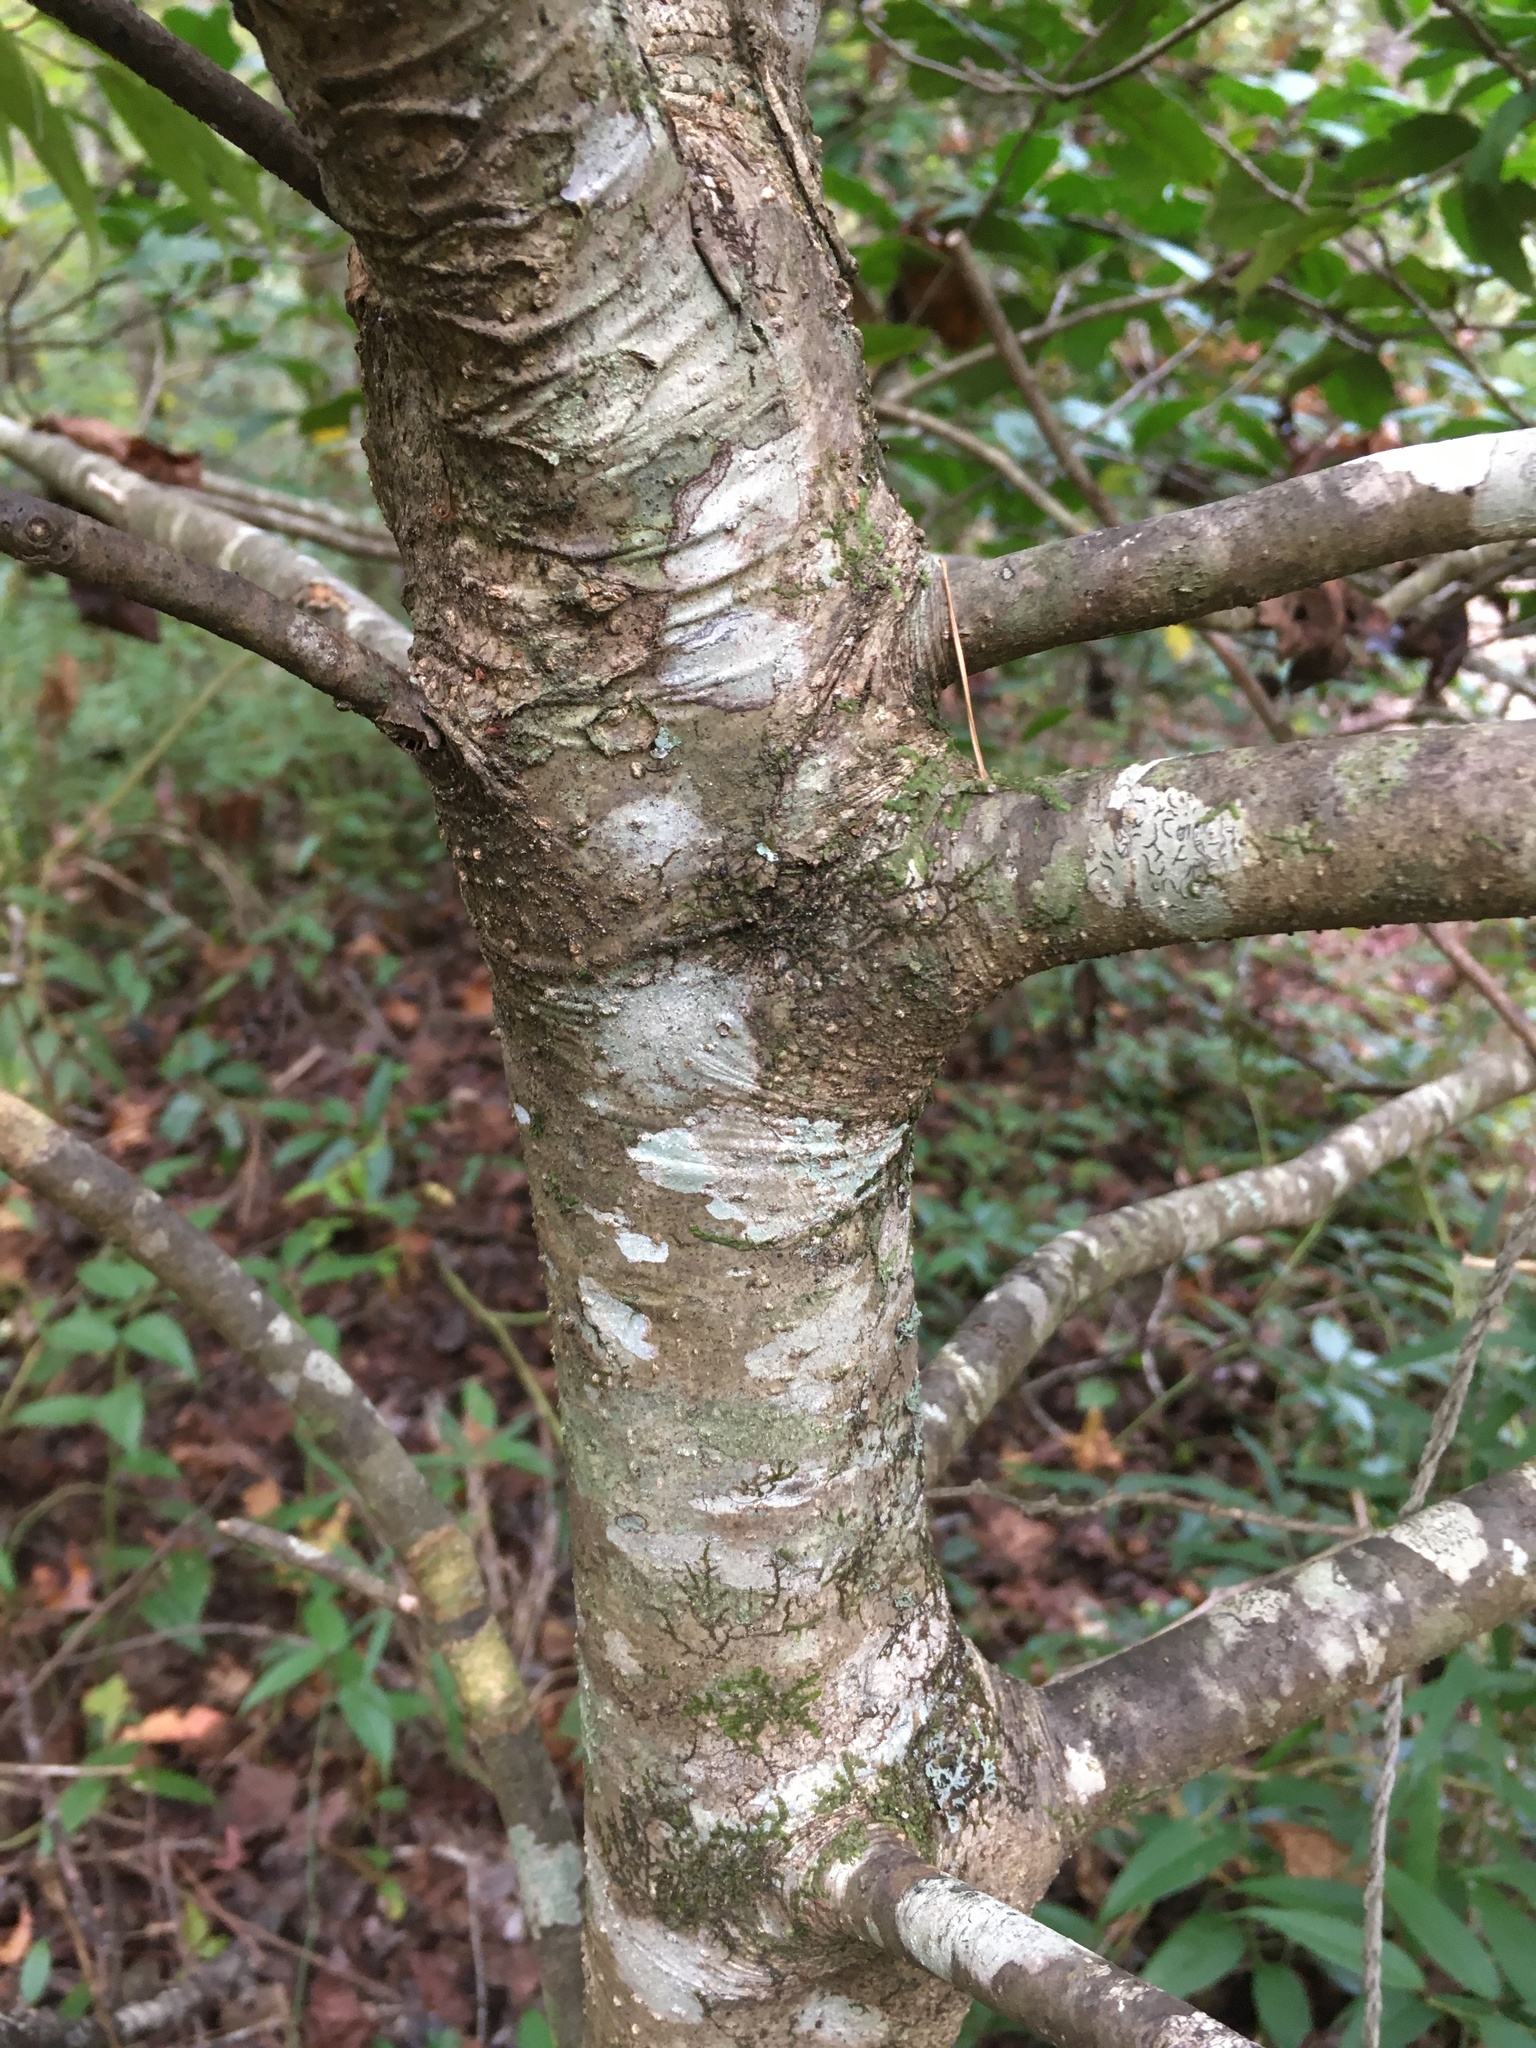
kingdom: Plantae
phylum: Tracheophyta
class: Magnoliopsida
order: Aquifoliales
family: Aquifoliaceae
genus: Ilex
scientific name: Ilex opaca
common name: American holly
